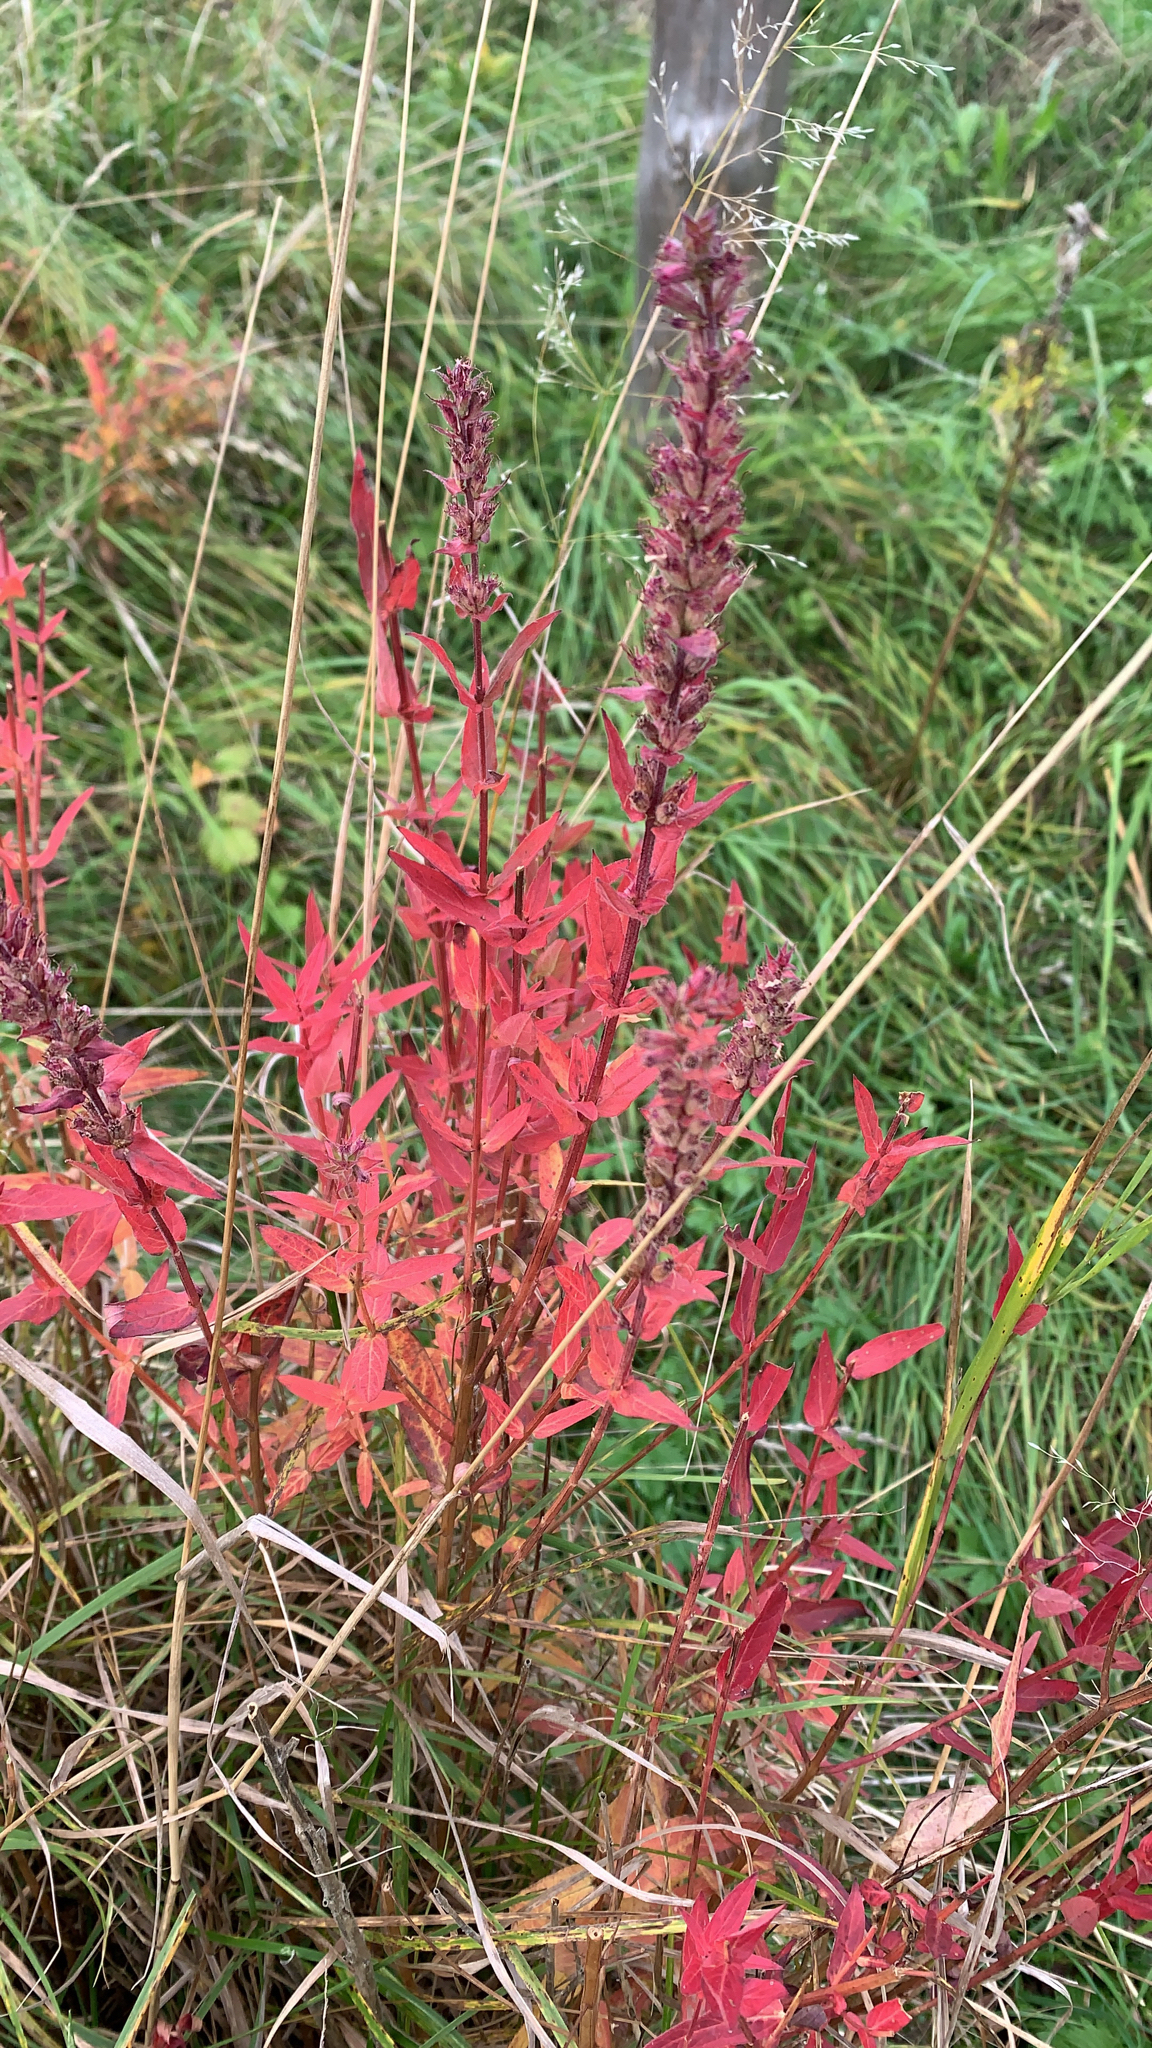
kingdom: Plantae
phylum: Tracheophyta
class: Magnoliopsida
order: Myrtales
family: Lythraceae
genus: Lythrum
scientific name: Lythrum salicaria
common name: Purple loosestrife
